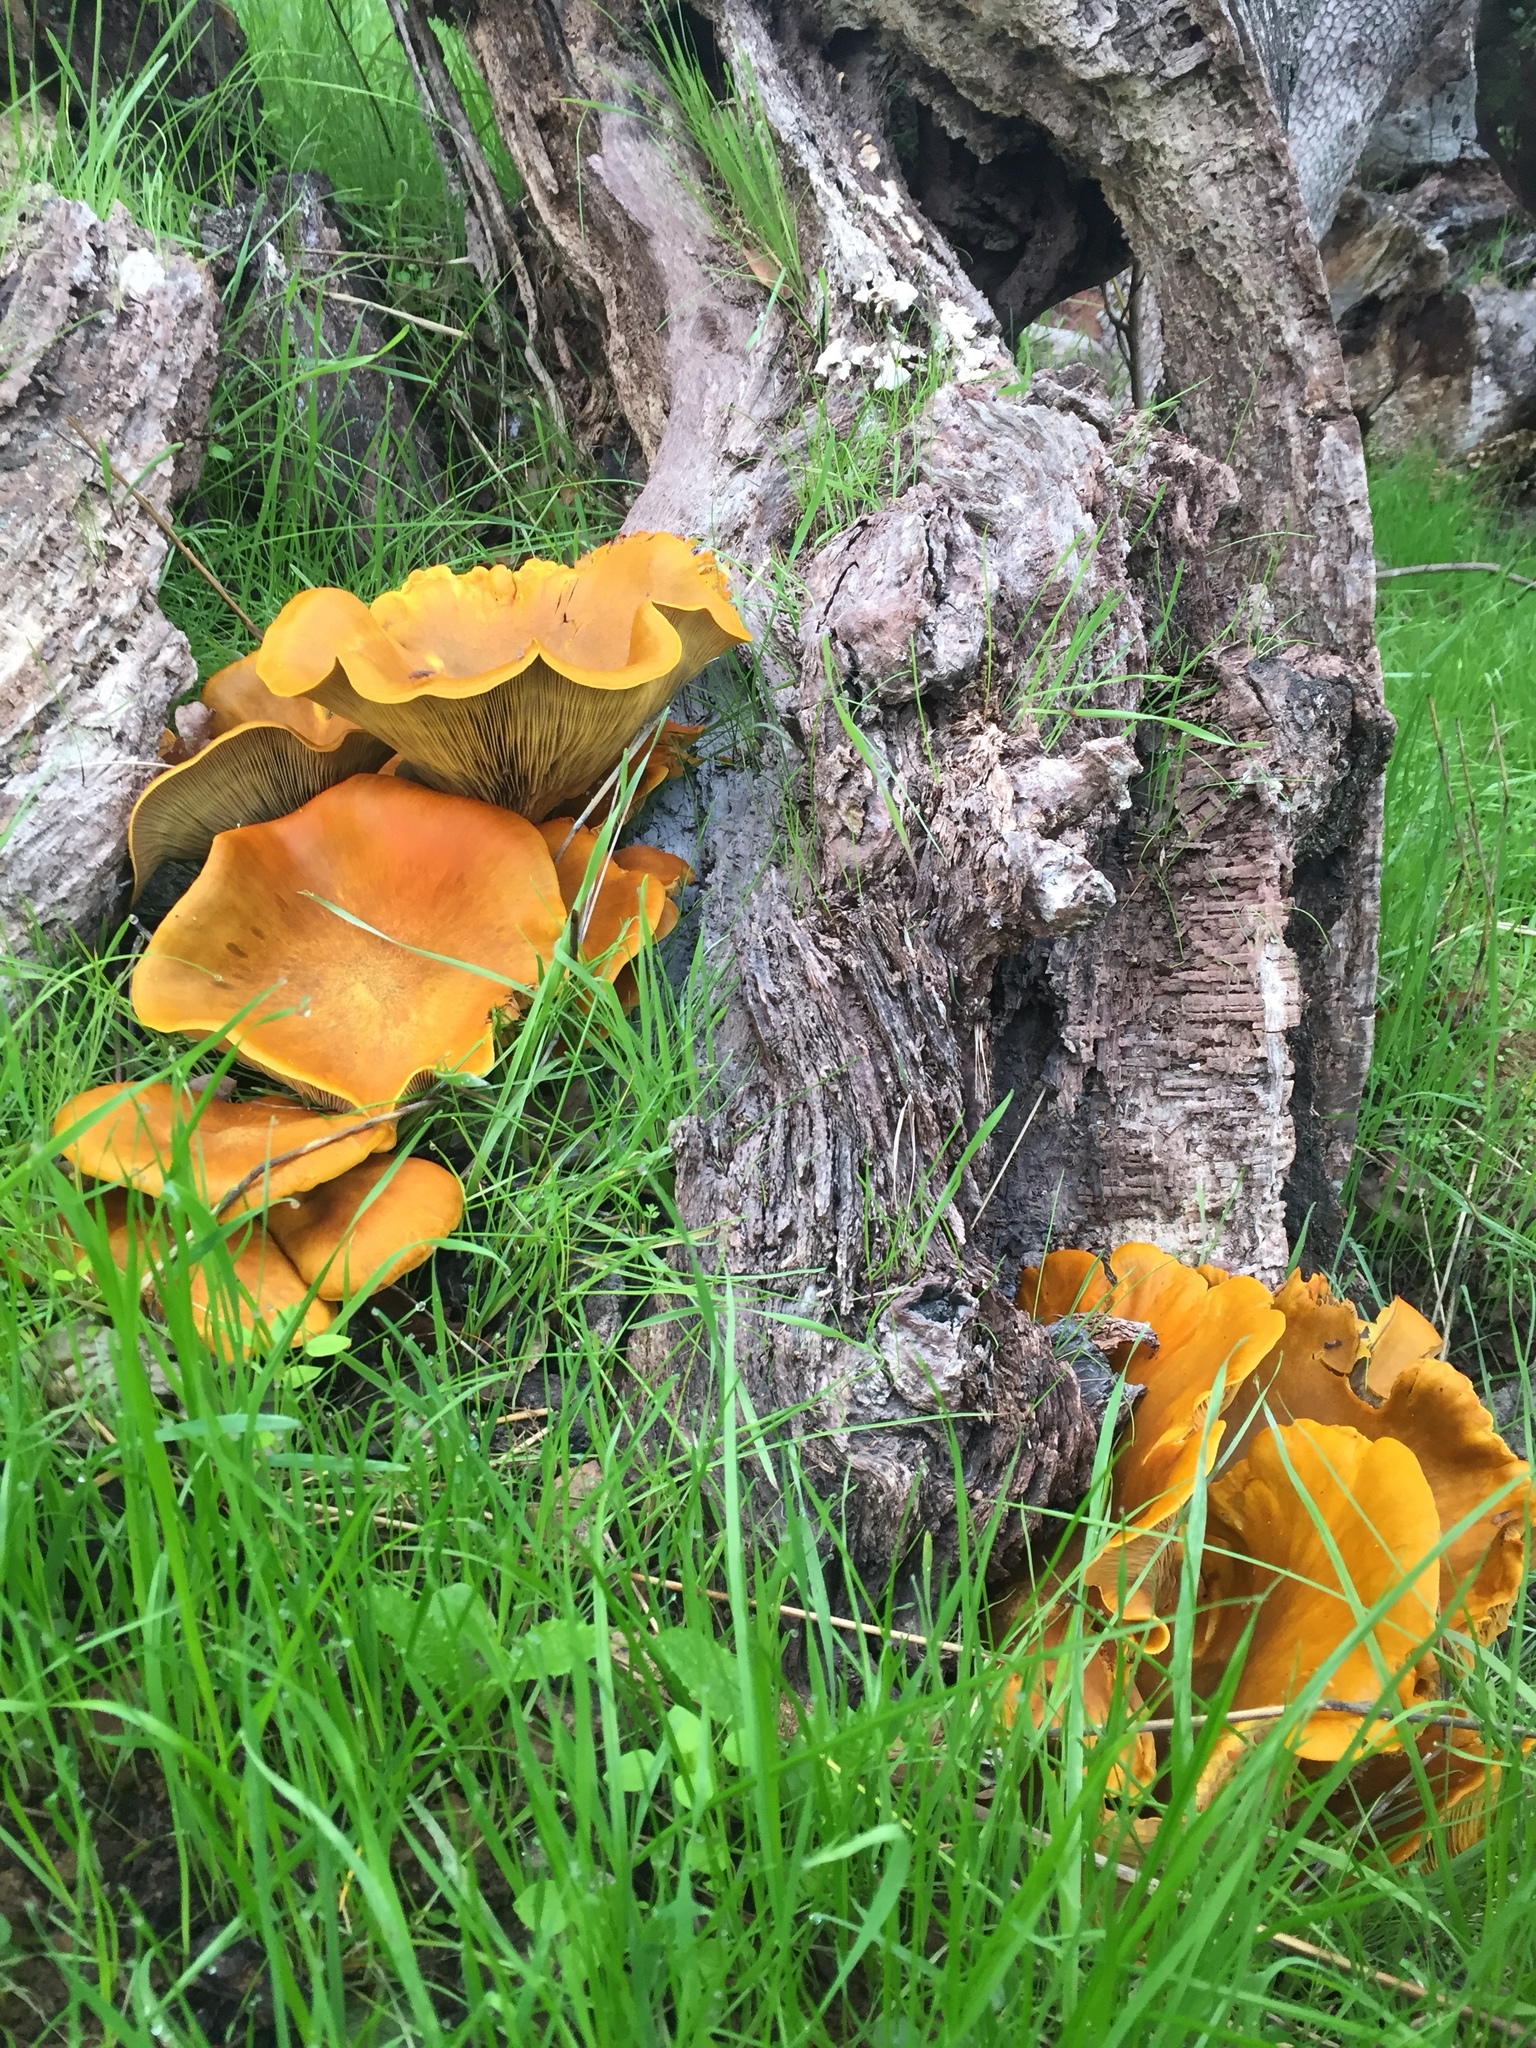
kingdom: Fungi
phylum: Basidiomycota
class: Agaricomycetes
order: Agaricales
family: Omphalotaceae
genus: Omphalotus
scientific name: Omphalotus olivascens
